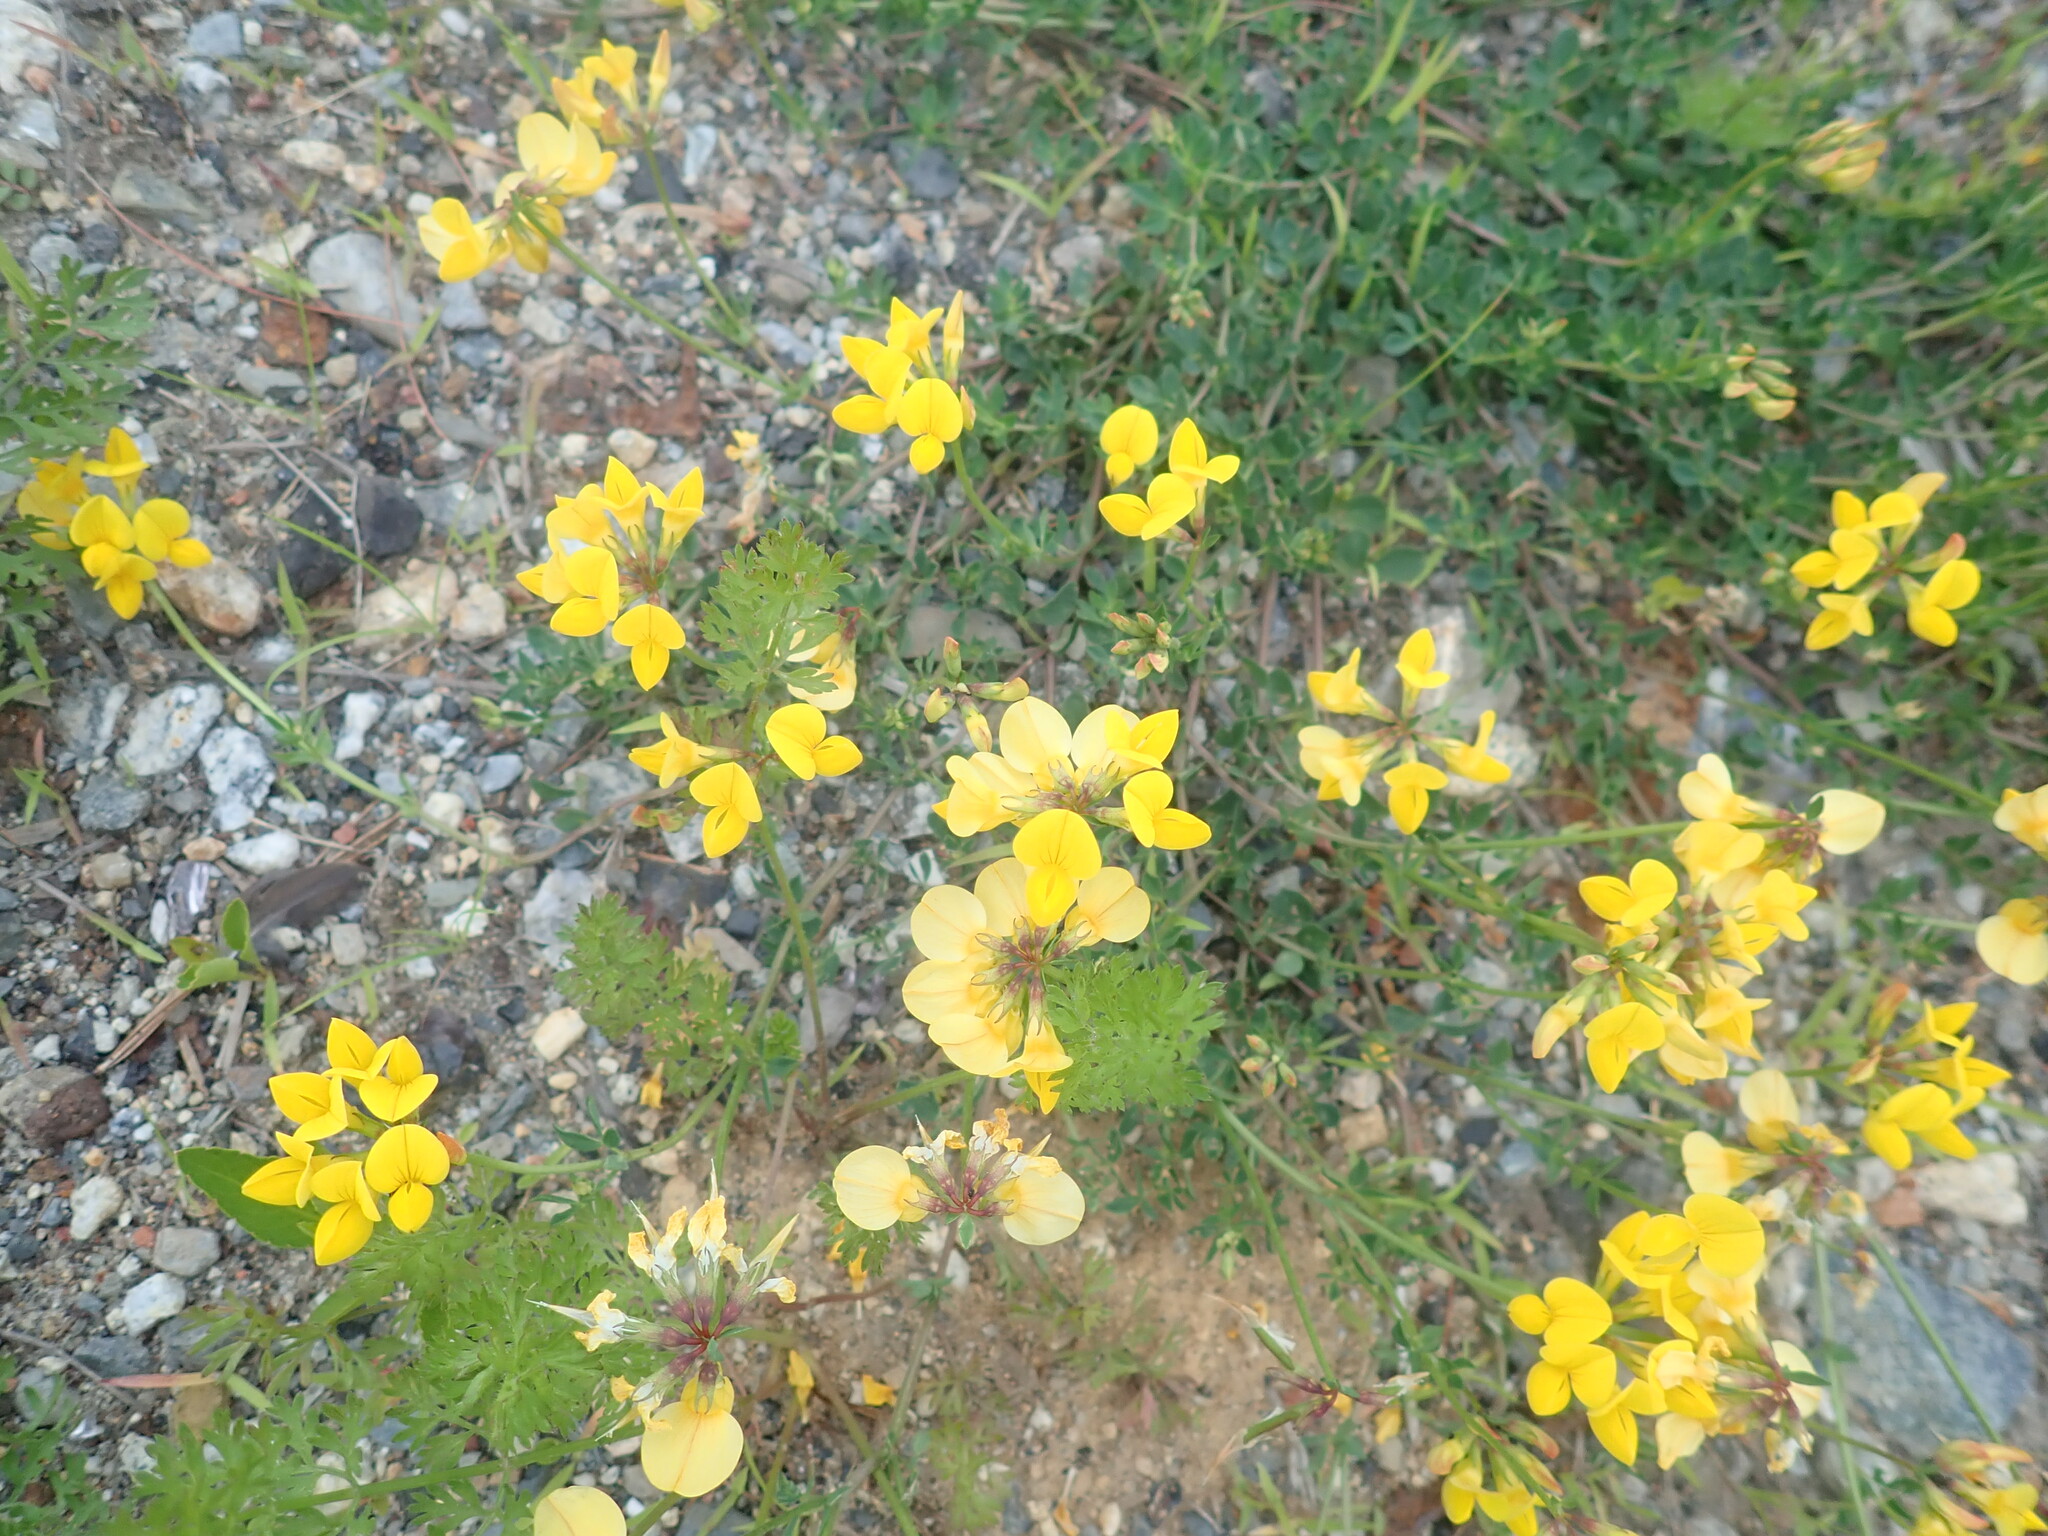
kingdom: Plantae
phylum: Tracheophyta
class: Magnoliopsida
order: Fabales
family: Fabaceae
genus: Lotus
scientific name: Lotus corniculatus
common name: Common bird's-foot-trefoil
